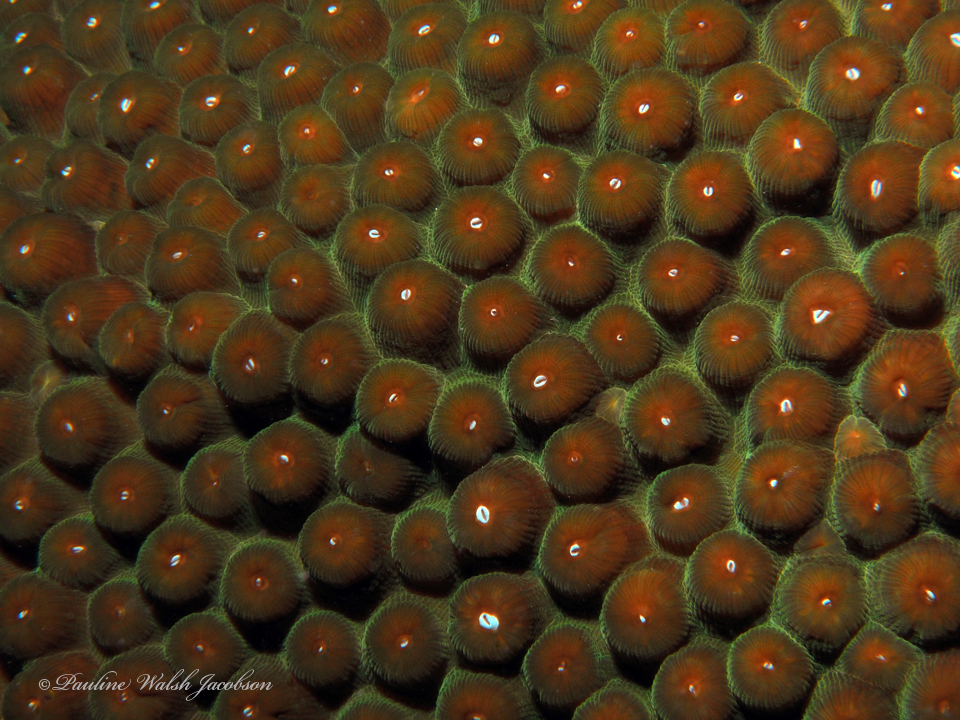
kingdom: Animalia
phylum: Cnidaria
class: Anthozoa
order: Scleractinia
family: Montastraeidae
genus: Montastraea
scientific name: Montastraea cavernosa
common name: Great star coral
